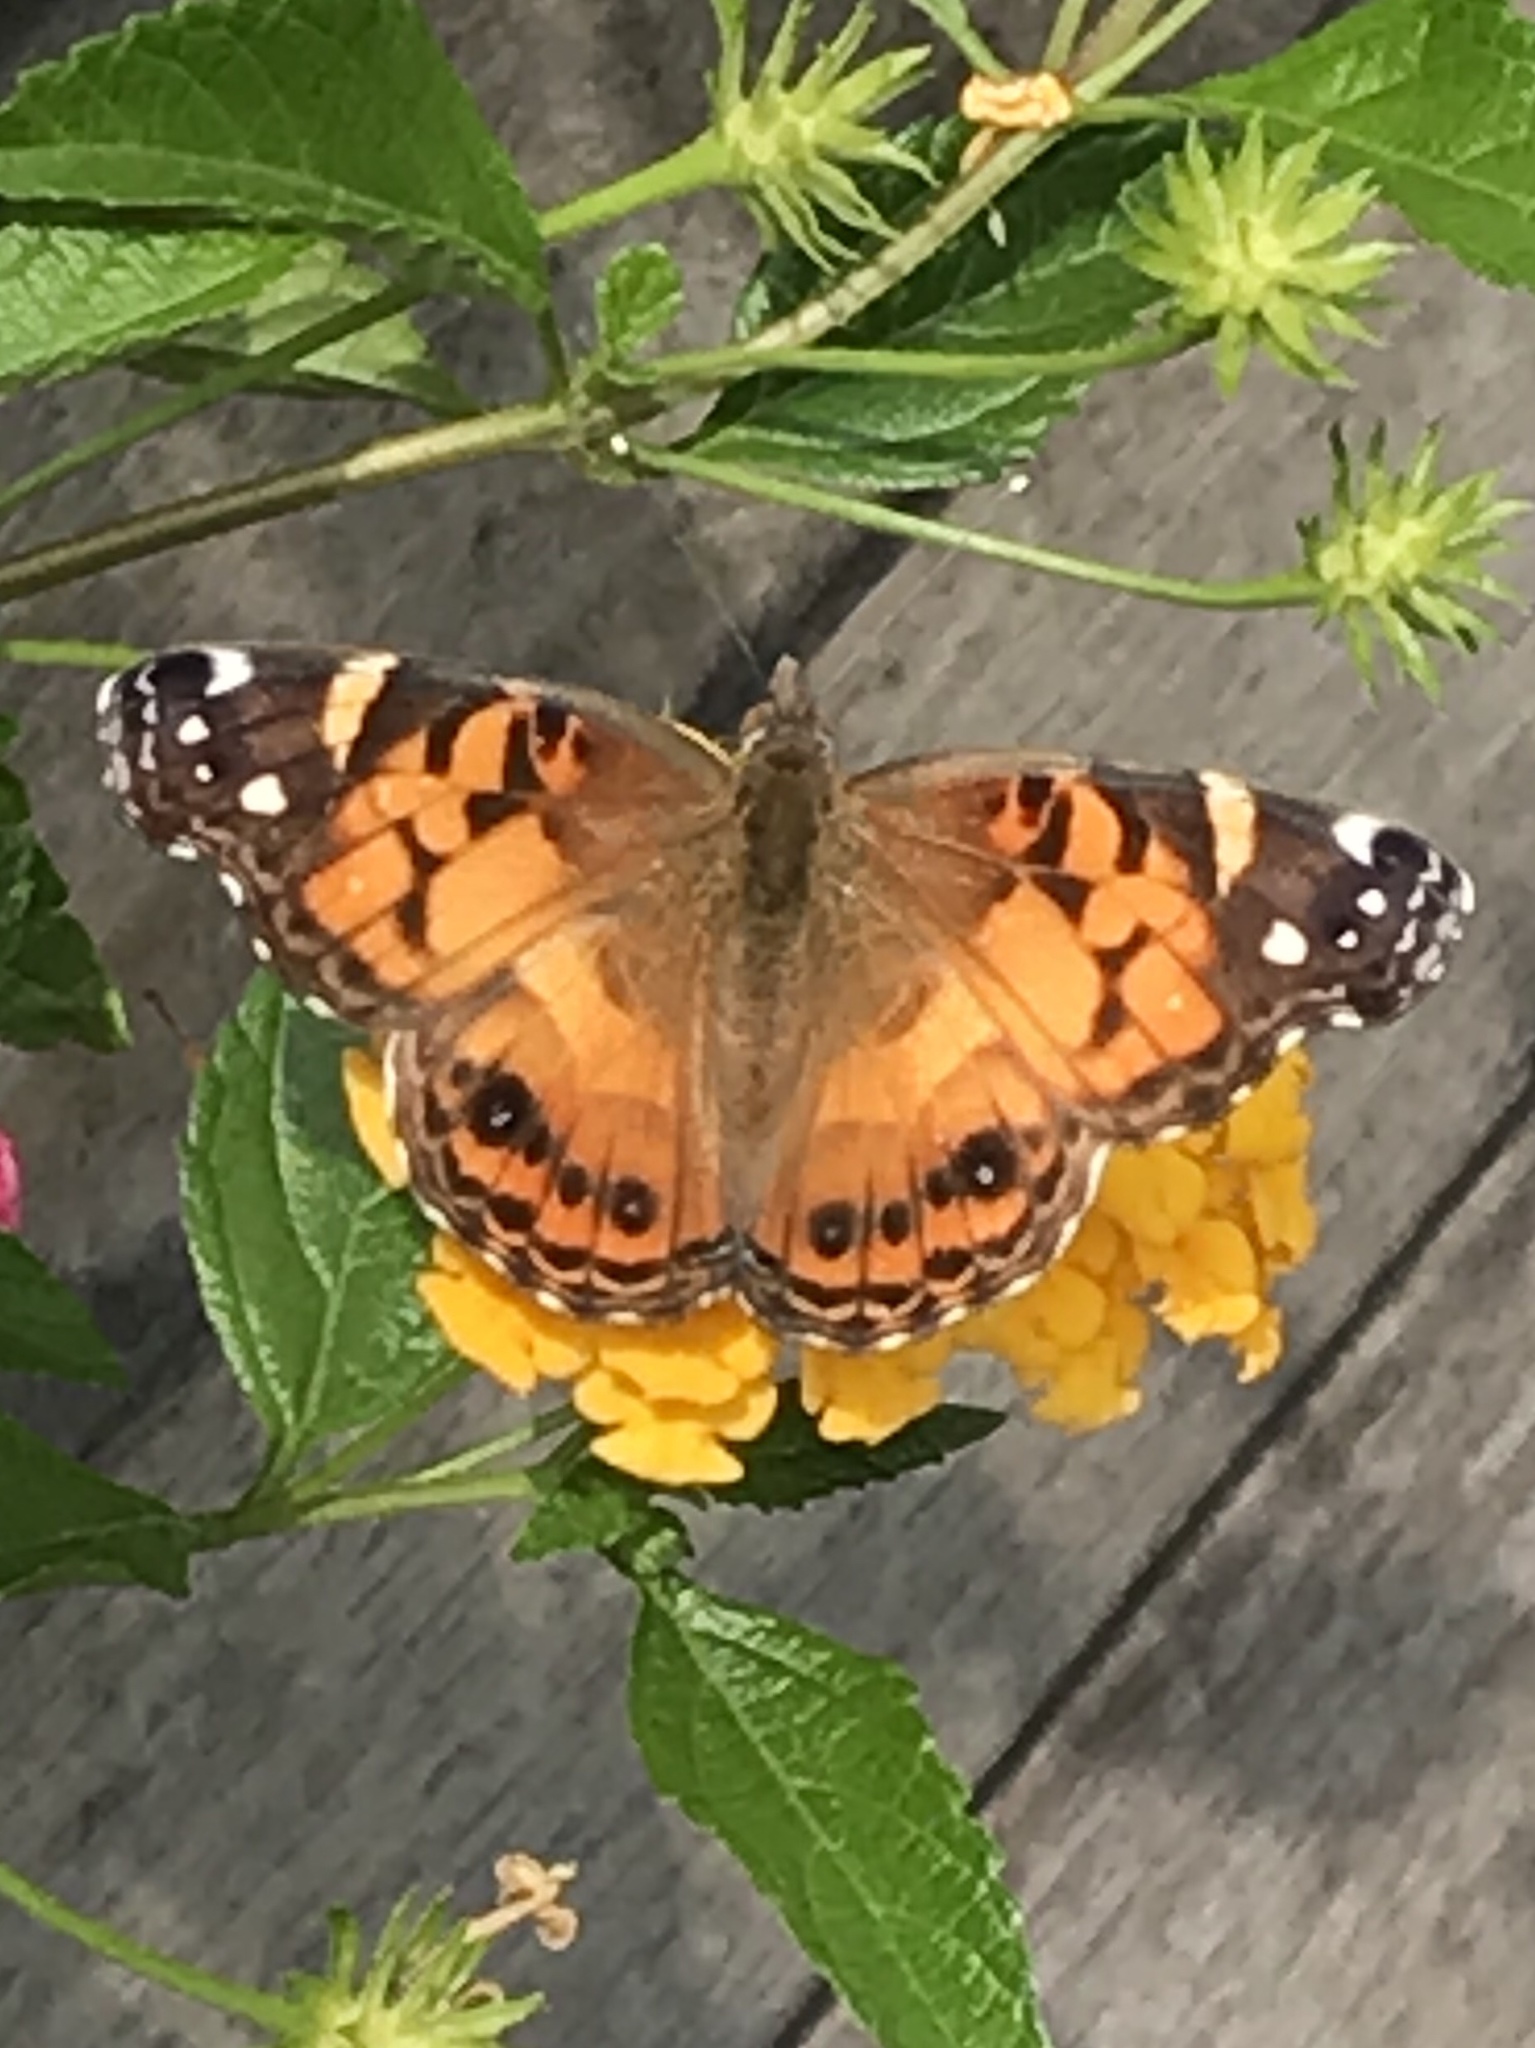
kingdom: Animalia
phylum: Arthropoda
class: Insecta
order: Lepidoptera
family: Nymphalidae
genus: Vanessa
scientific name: Vanessa virginiensis
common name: American lady
